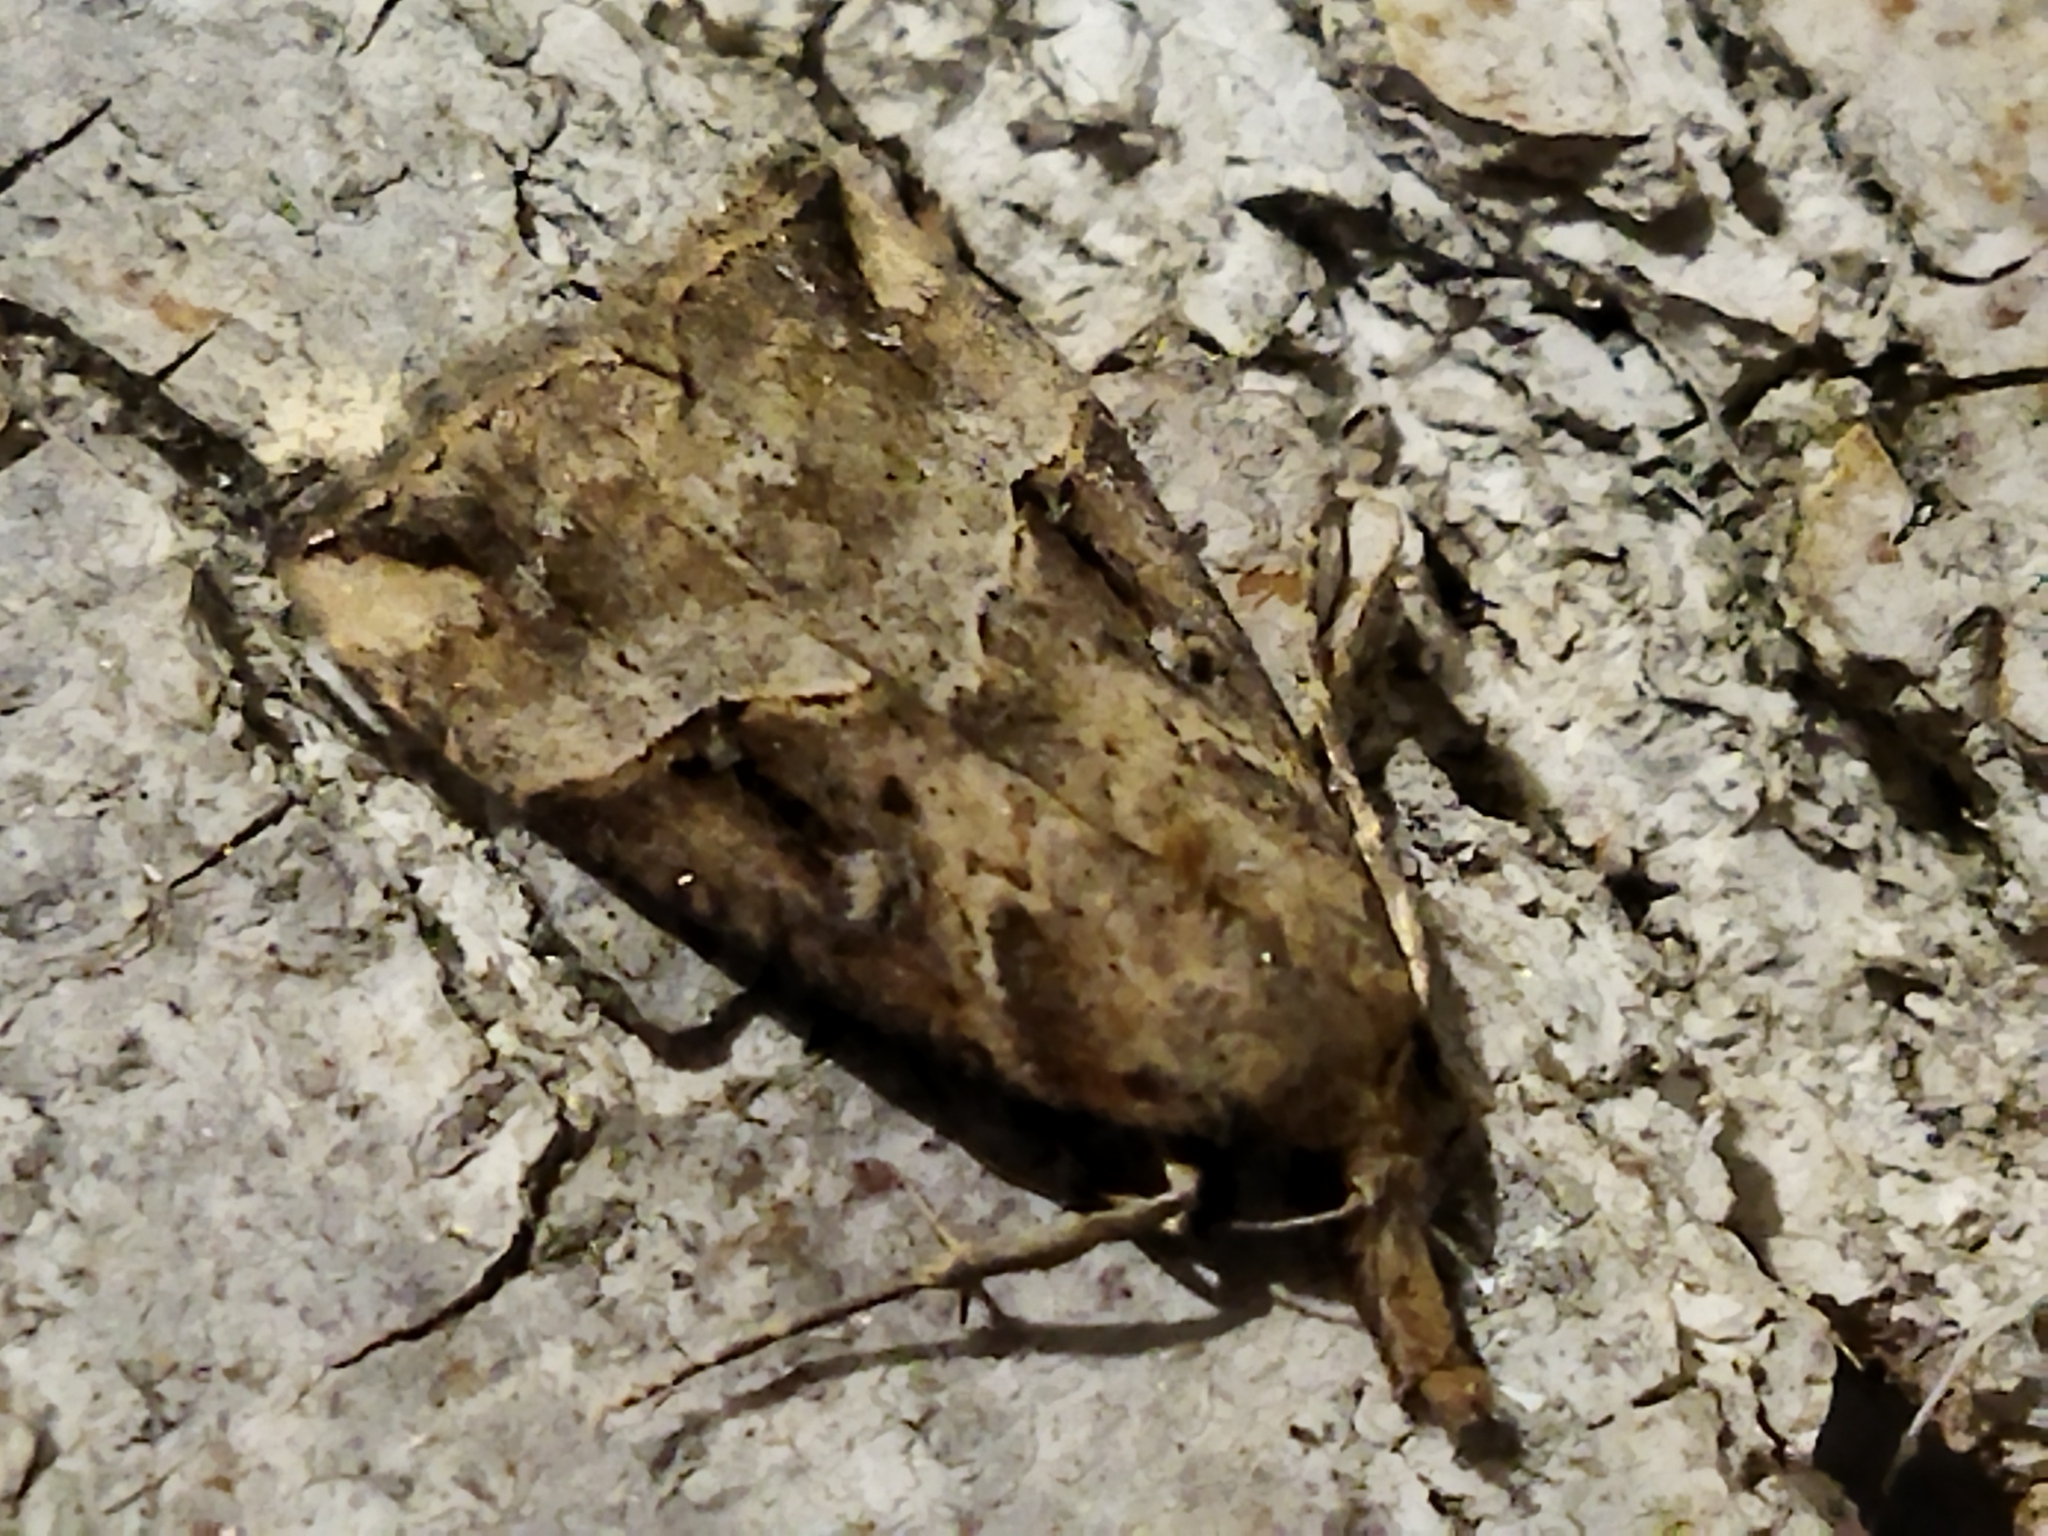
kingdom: Animalia
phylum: Arthropoda
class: Insecta
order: Lepidoptera
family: Erebidae
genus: Hypena
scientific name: Hypena rostralis
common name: Buttoned snout
